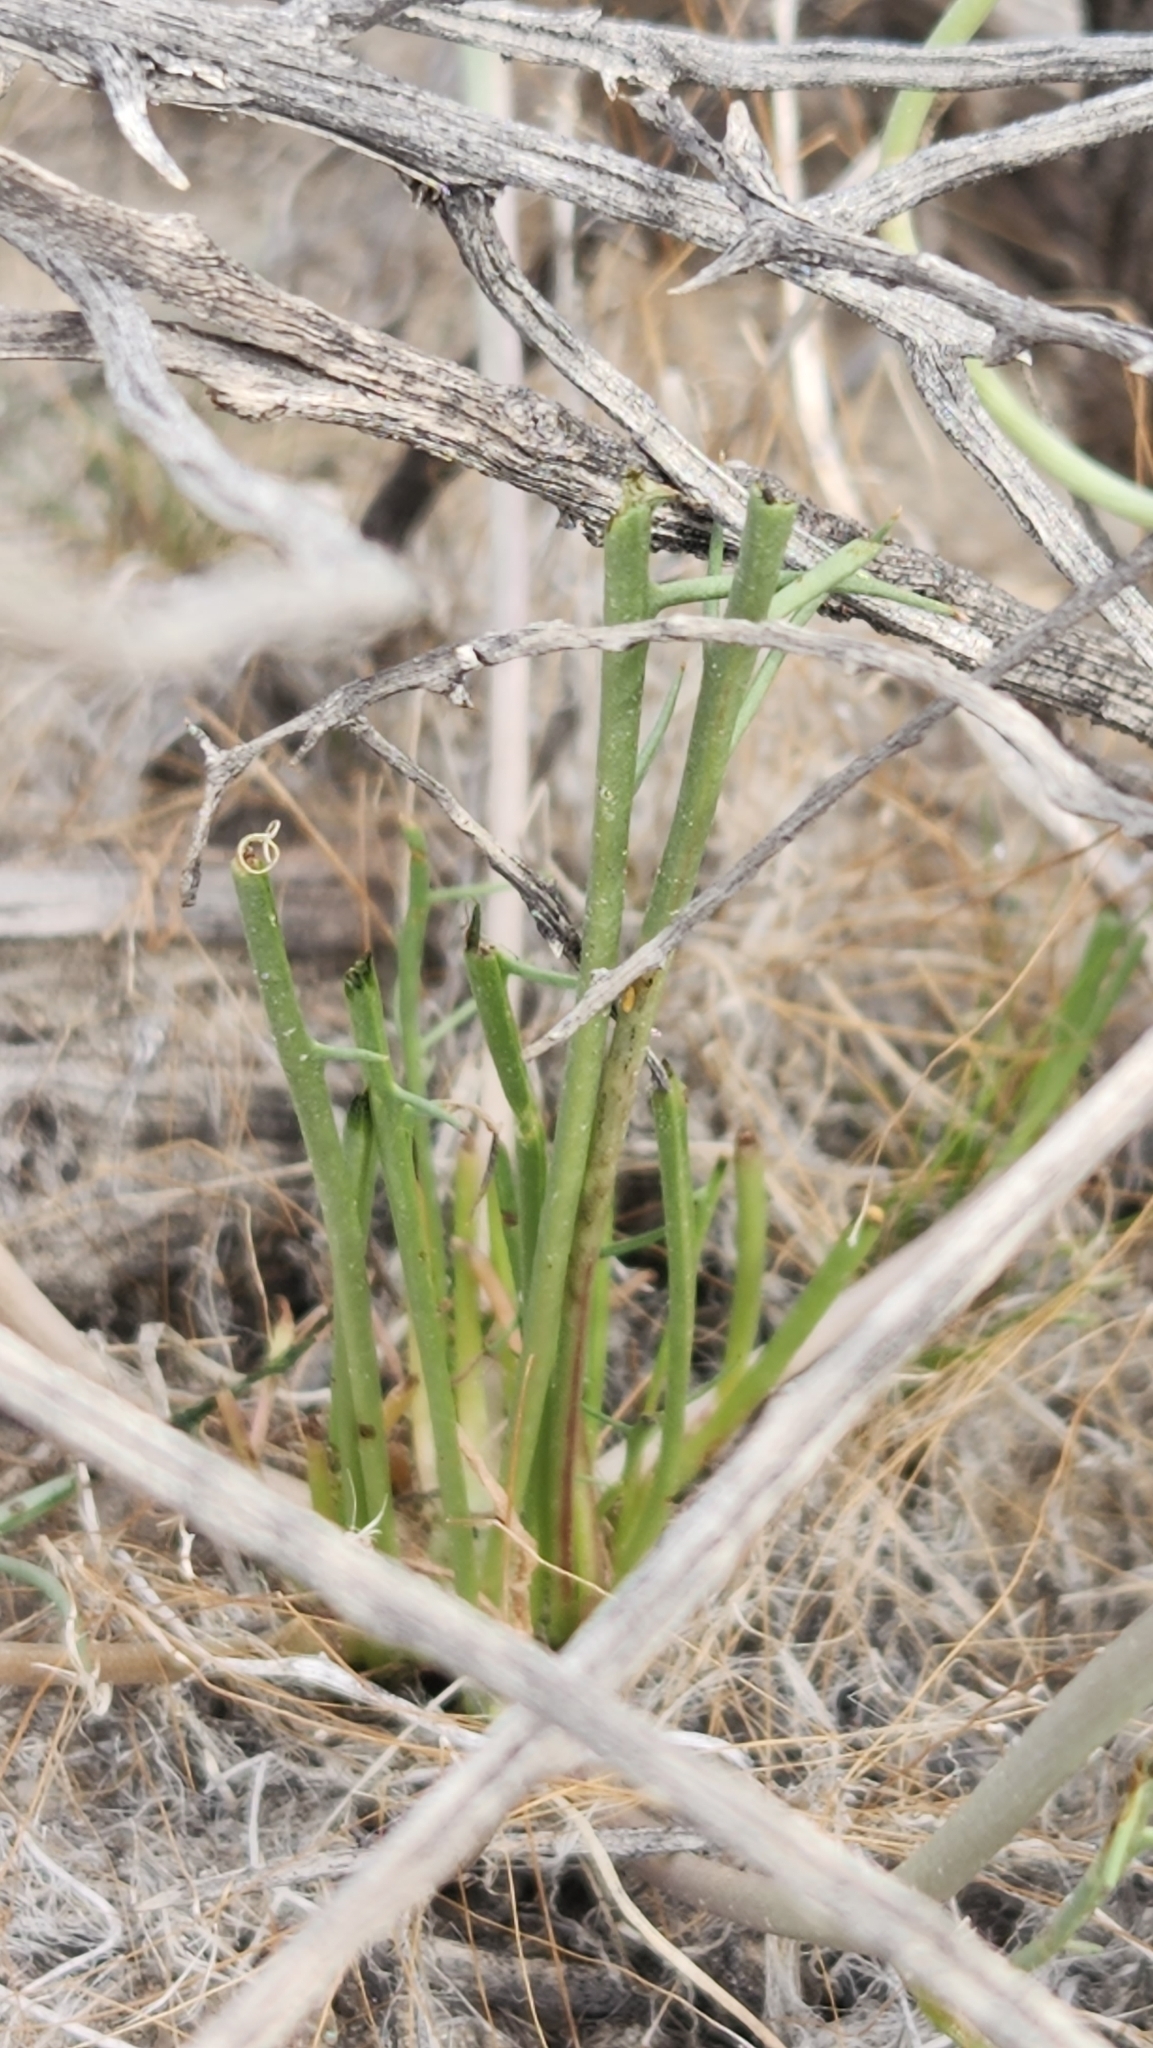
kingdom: Plantae
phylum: Tracheophyta
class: Magnoliopsida
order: Asterales
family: Asteraceae
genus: Malacothrix
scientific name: Malacothrix glabrata
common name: Smooth desert-dandelion
